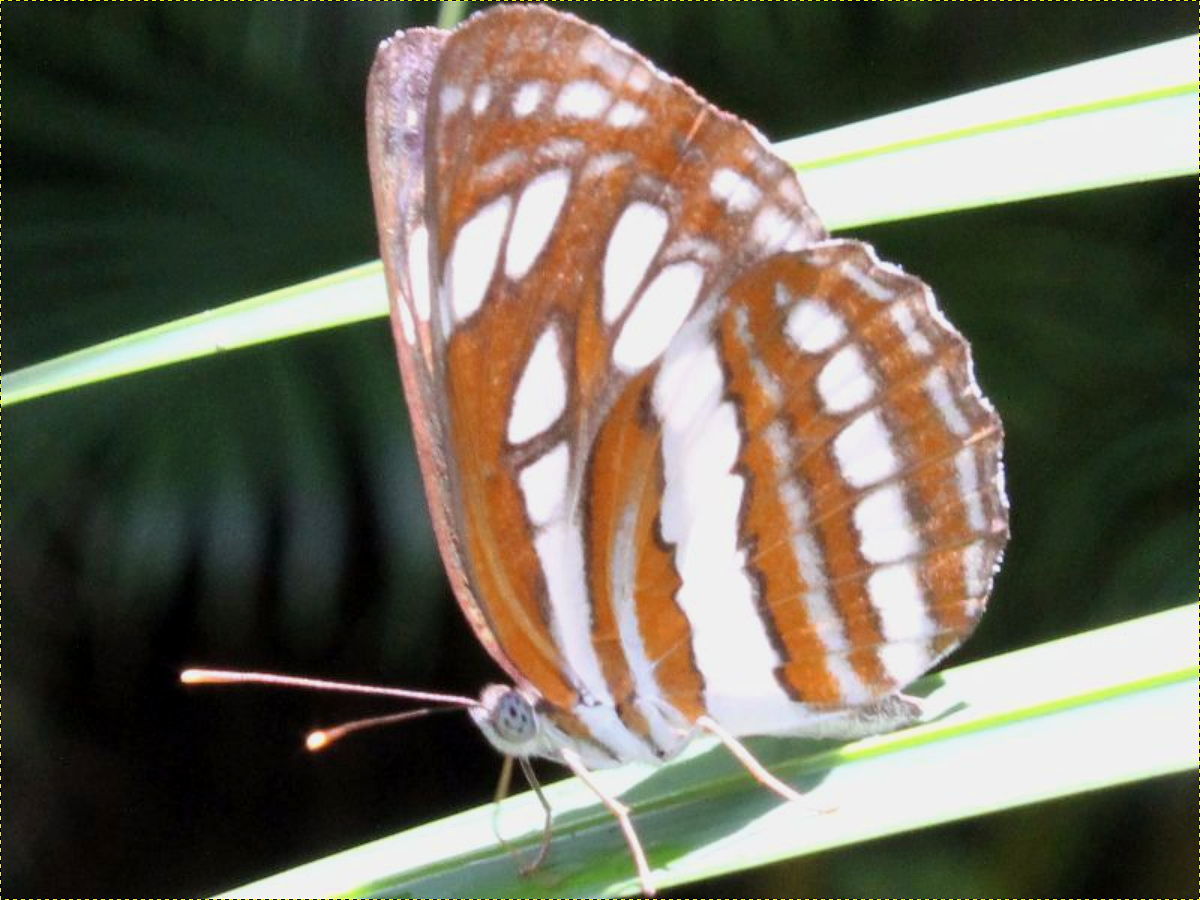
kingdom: Animalia
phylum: Arthropoda
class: Insecta
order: Lepidoptera
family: Nymphalidae
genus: Neptis
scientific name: Neptis hylas
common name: Common sailer
